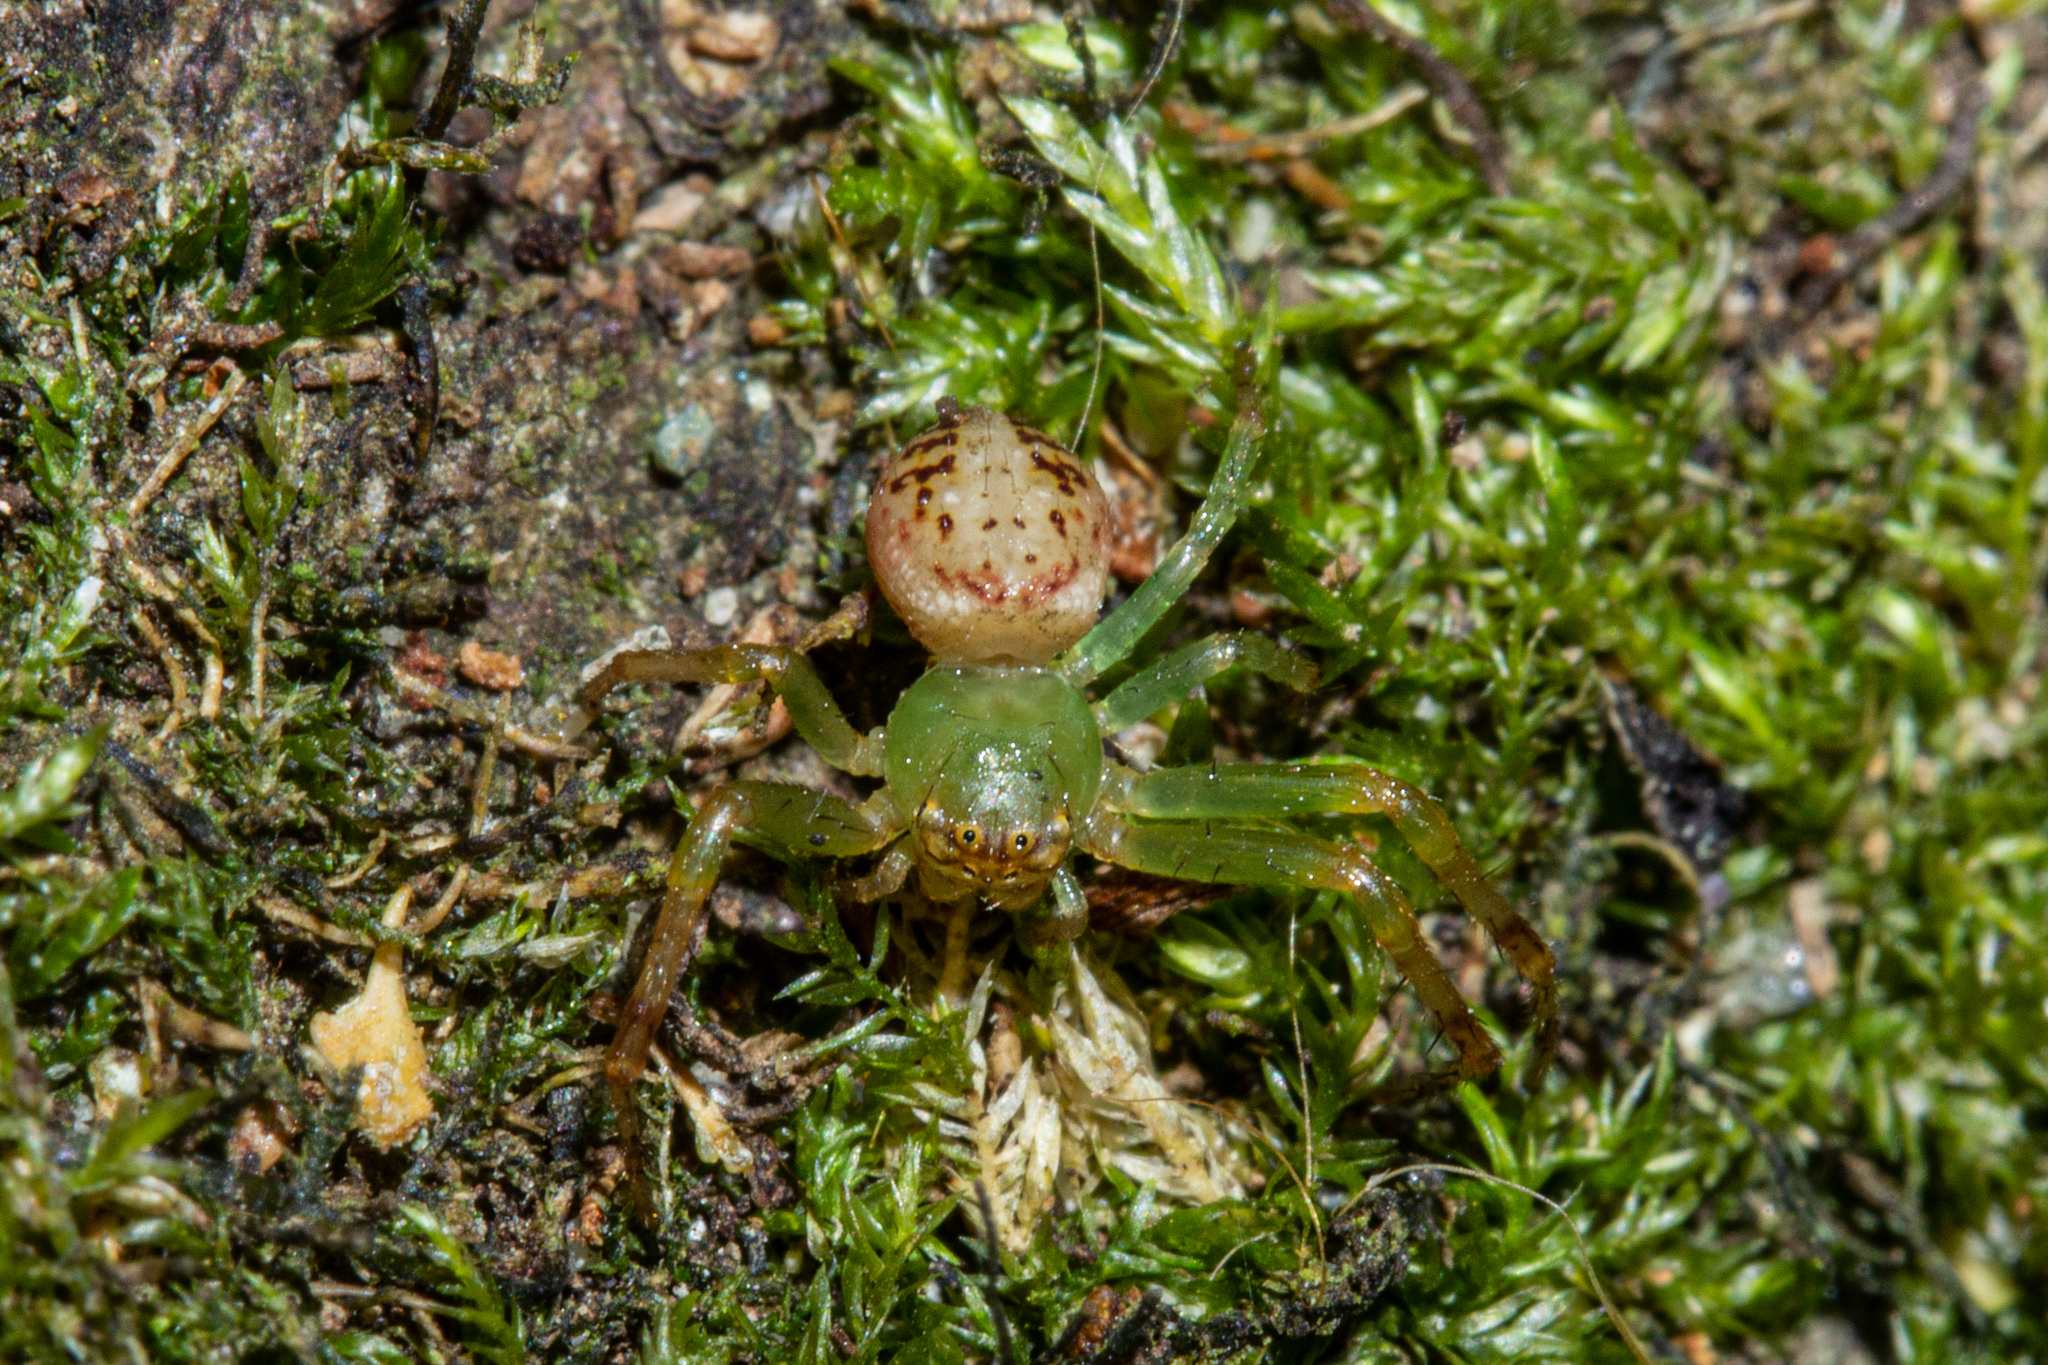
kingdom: Animalia
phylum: Arthropoda
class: Arachnida
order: Araneae
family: Thomisidae
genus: Diaea
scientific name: Diaea ambara
